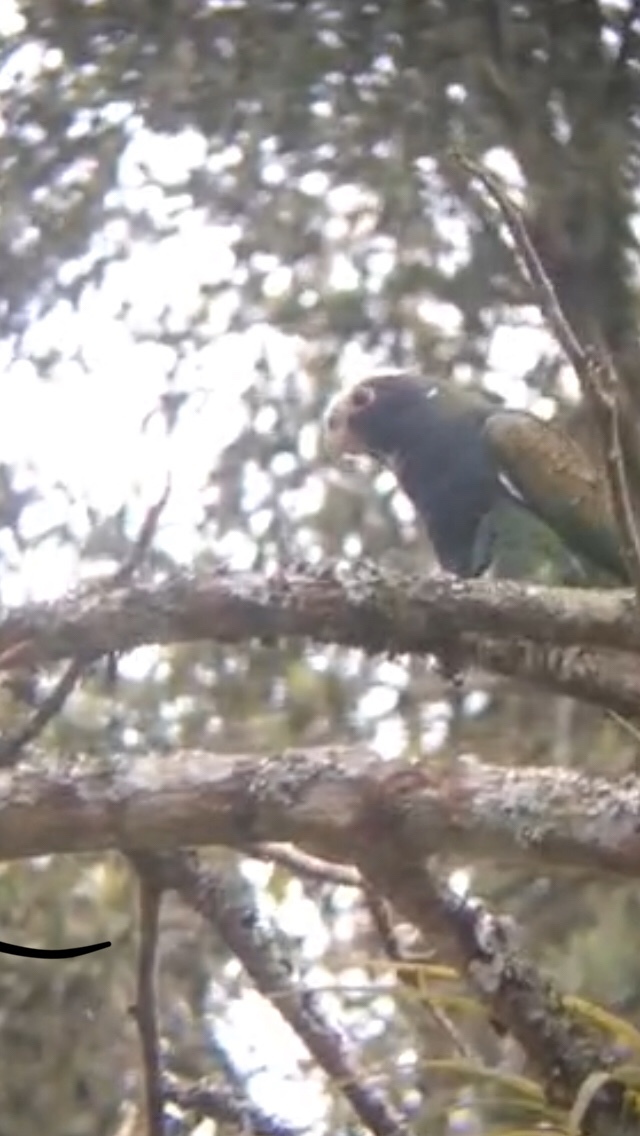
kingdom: Animalia
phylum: Chordata
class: Aves
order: Psittaciformes
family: Psittacidae
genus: Pionus
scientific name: Pionus senilis
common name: White-crowned parrot
